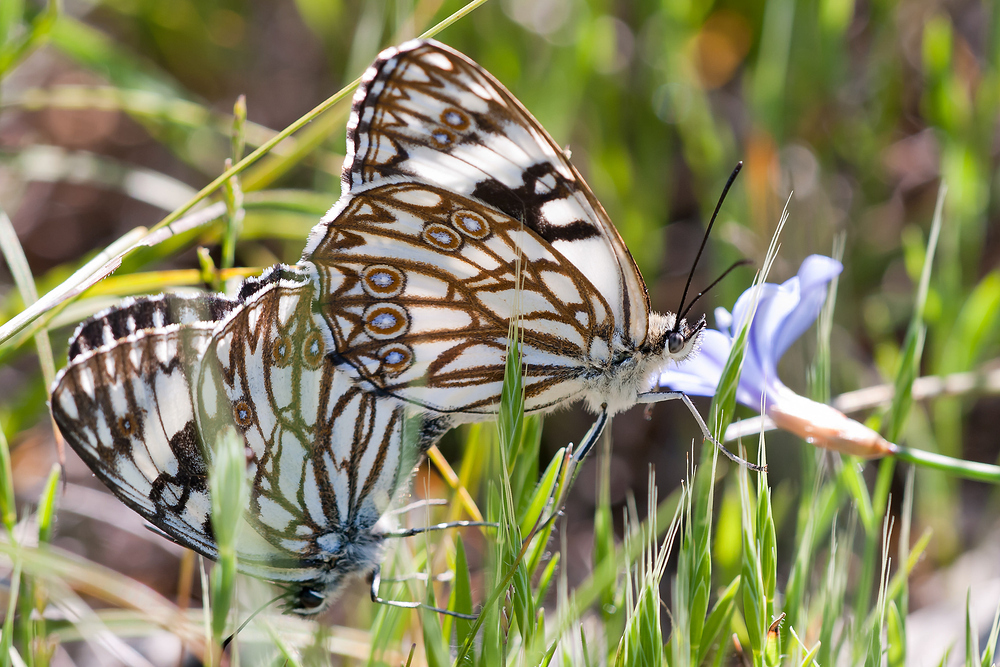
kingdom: Animalia
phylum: Arthropoda
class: Insecta
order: Lepidoptera
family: Nymphalidae
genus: Melanargia
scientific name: Melanargia occitanica
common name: Western marbled white
